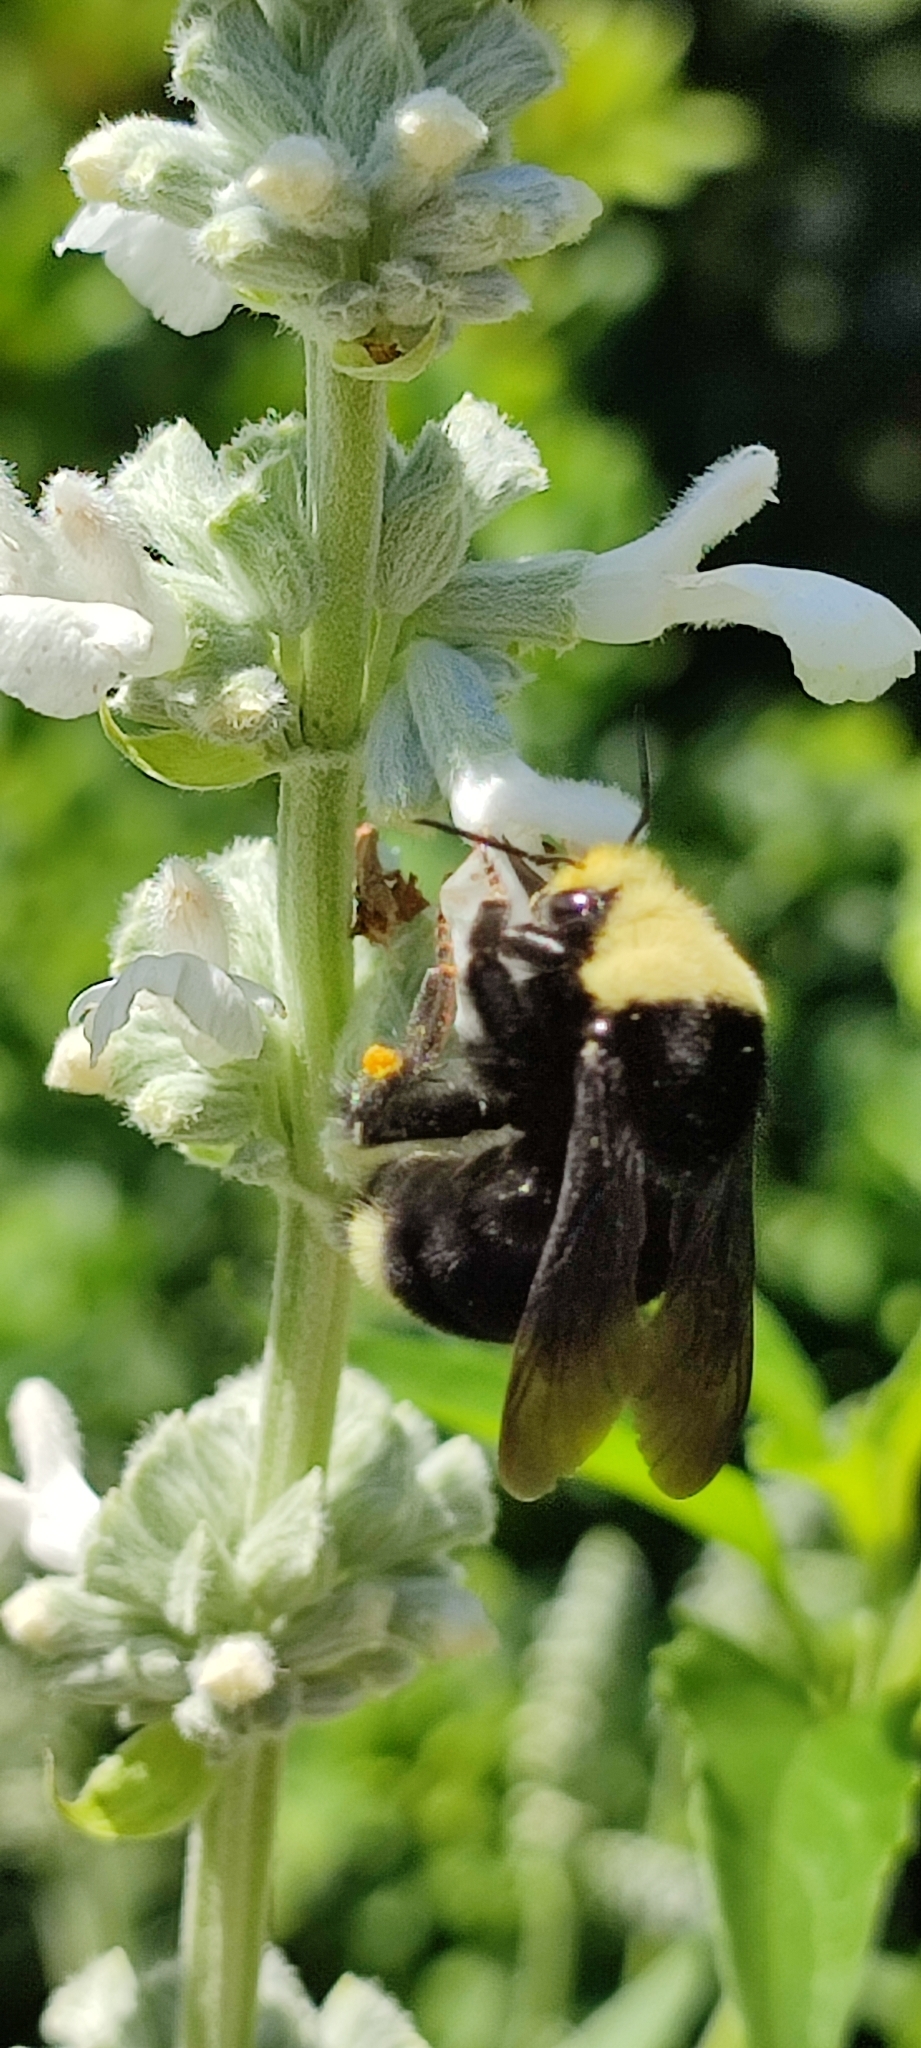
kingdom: Animalia
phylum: Arthropoda
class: Insecta
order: Hymenoptera
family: Apidae
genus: Bombus
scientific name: Bombus vosnesenskii
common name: Vosnesensky bumble bee
